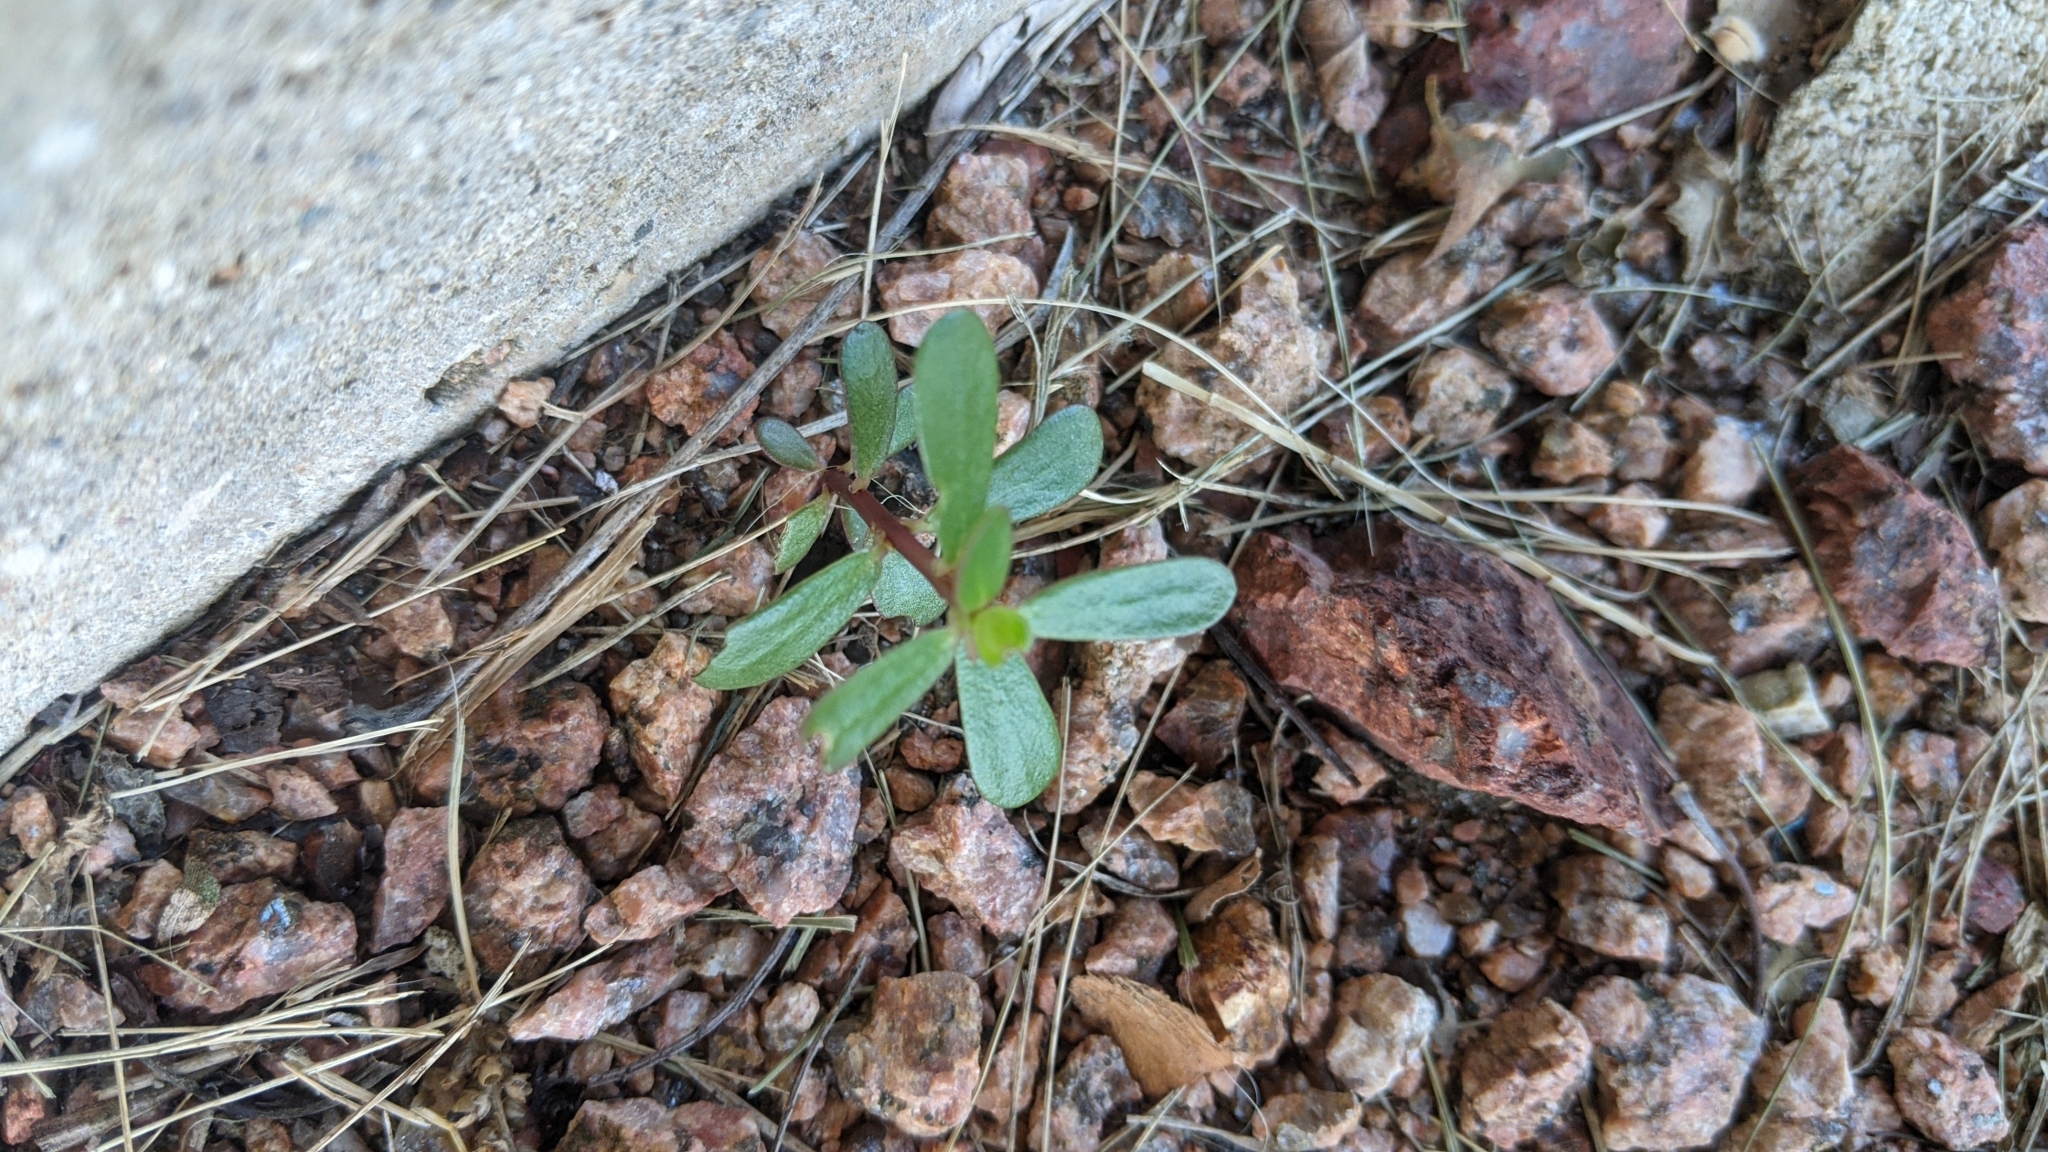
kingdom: Plantae
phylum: Tracheophyta
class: Magnoliopsida
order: Caryophyllales
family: Portulacaceae
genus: Portulaca
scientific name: Portulaca oleracea
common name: Common purslane
